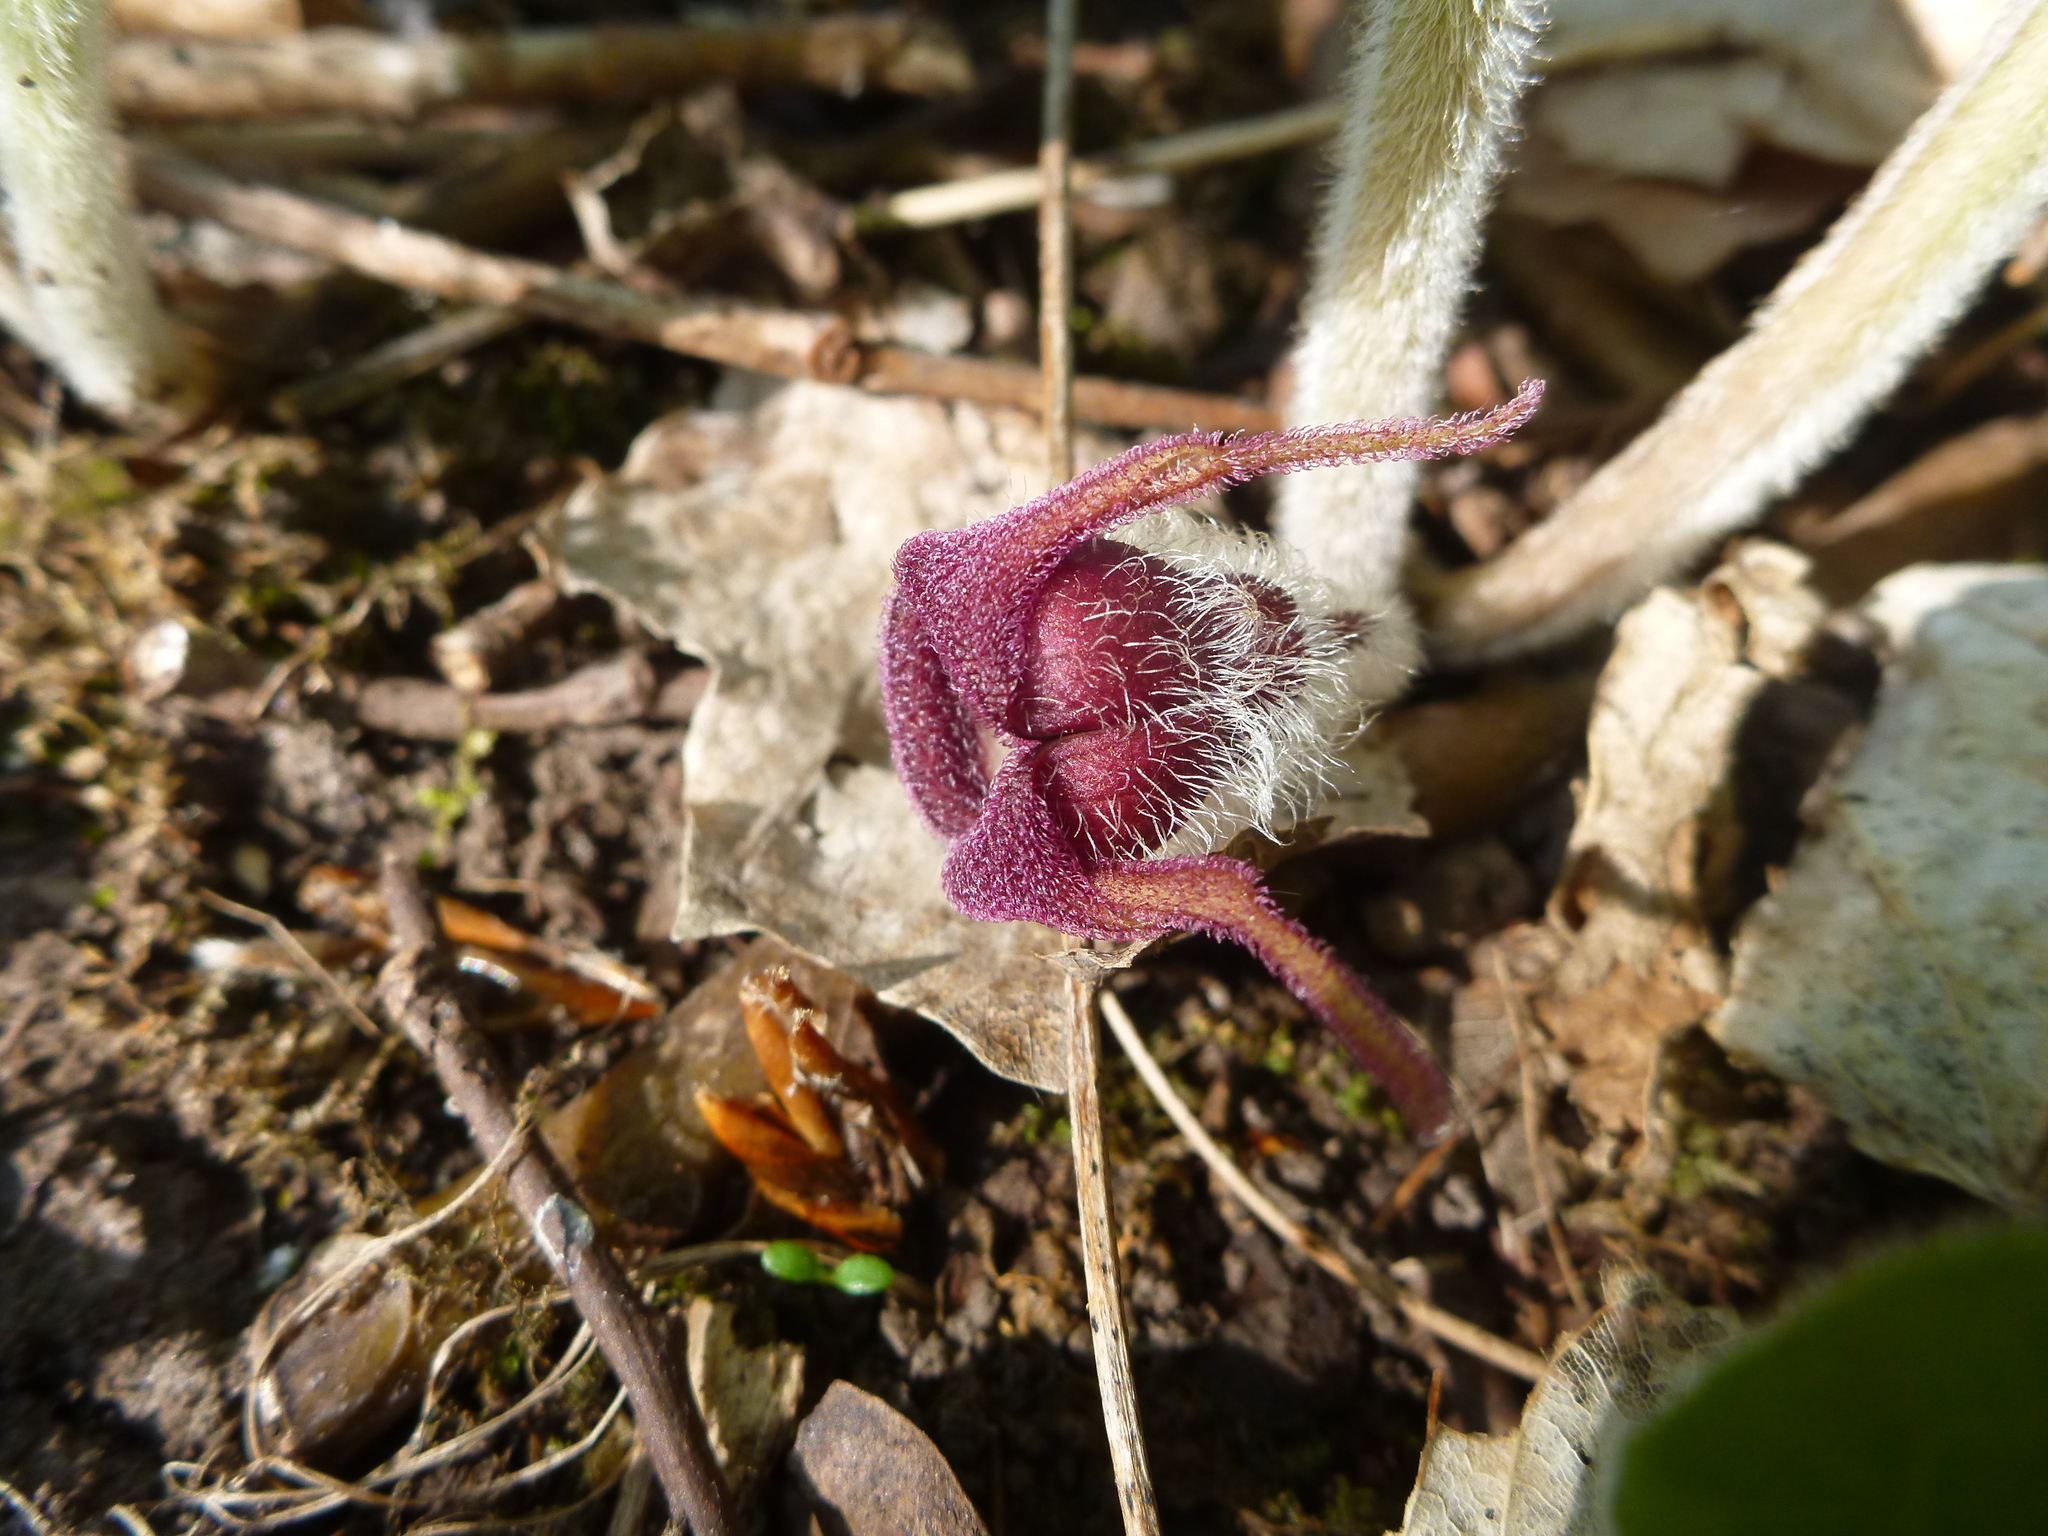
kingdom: Plantae
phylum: Tracheophyta
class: Magnoliopsida
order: Piperales
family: Aristolochiaceae
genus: Asarum
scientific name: Asarum canadense
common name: Wild ginger
